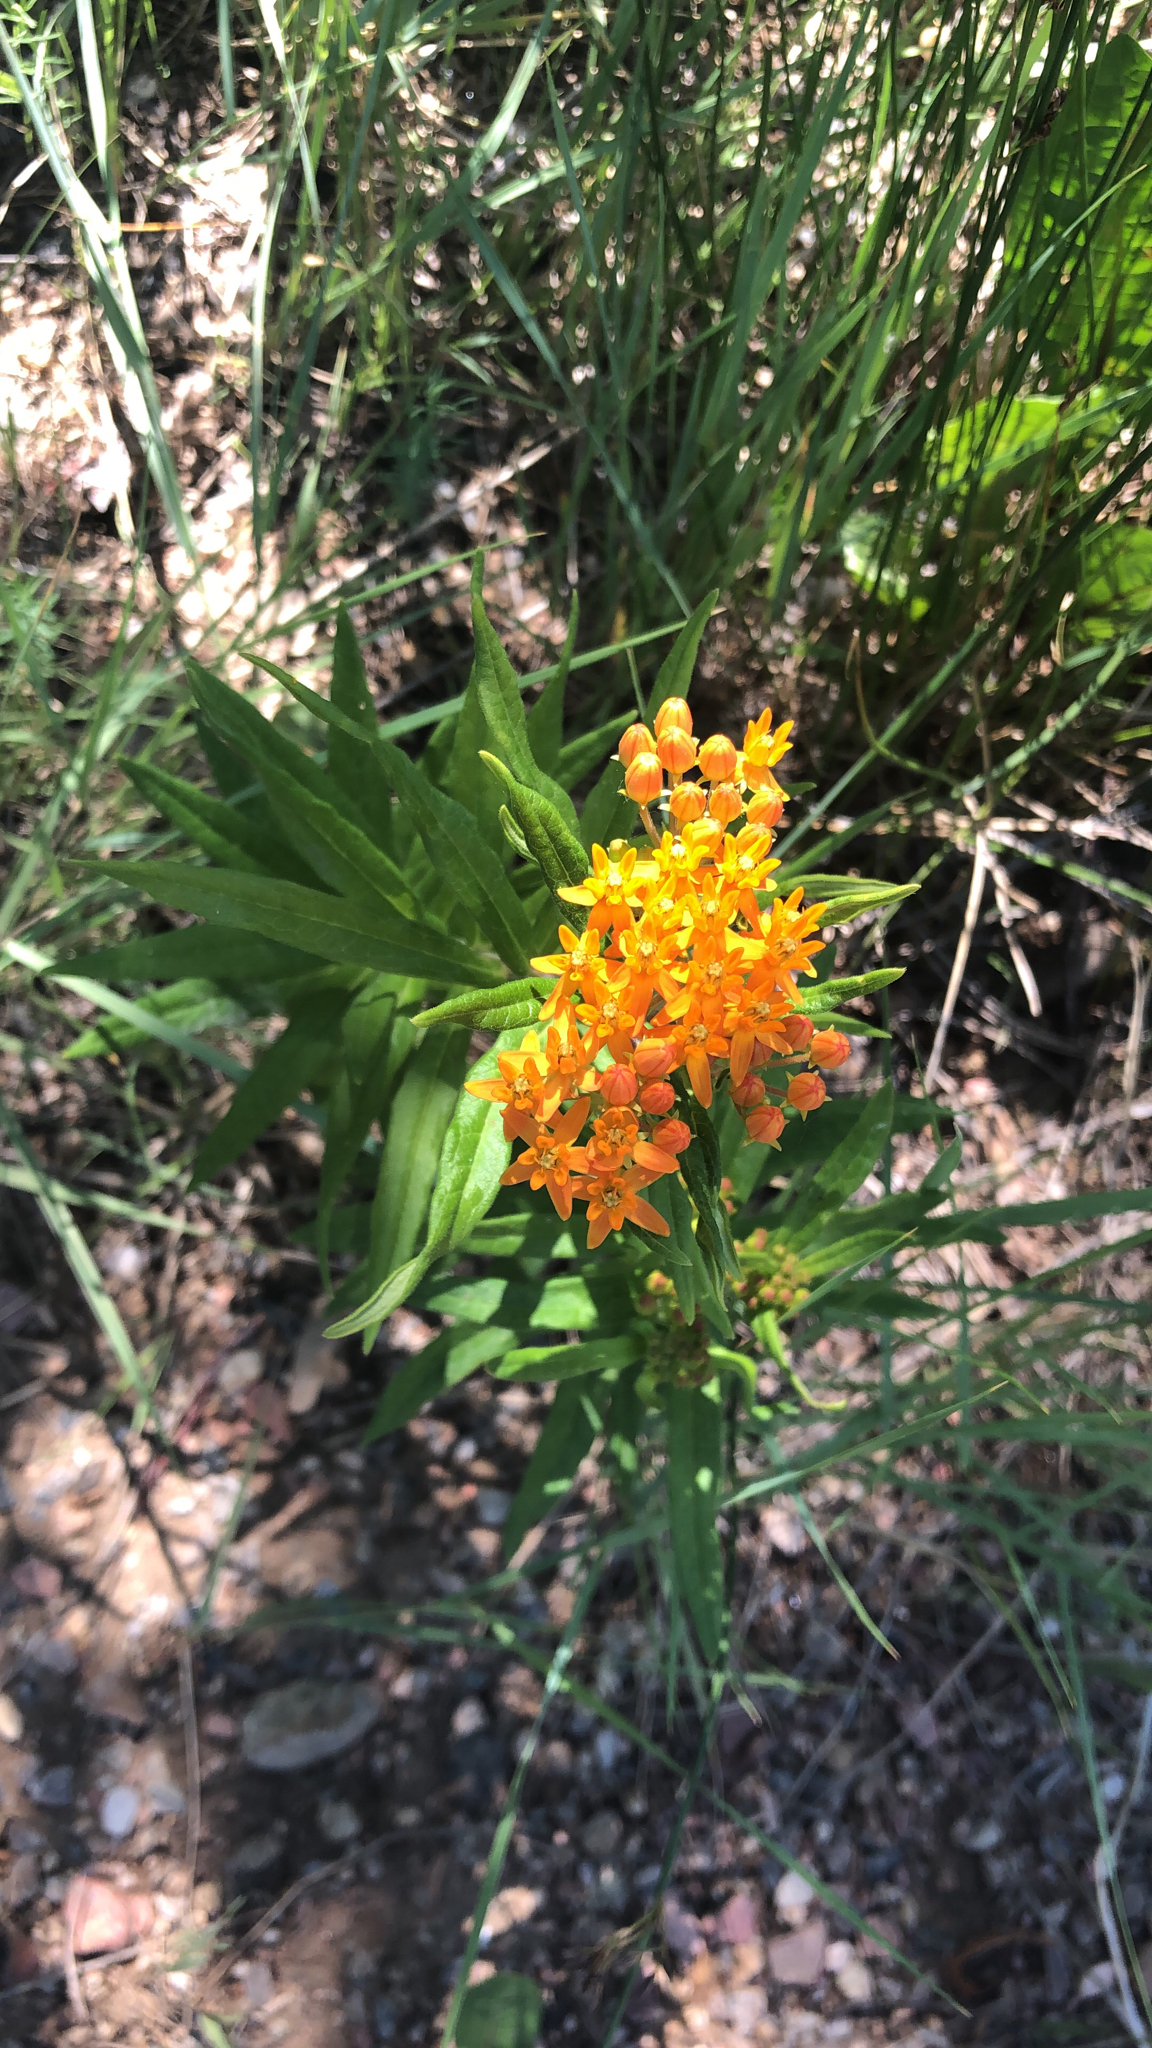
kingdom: Plantae
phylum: Tracheophyta
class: Magnoliopsida
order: Gentianales
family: Apocynaceae
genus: Asclepias
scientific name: Asclepias tuberosa
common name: Butterfly milkweed
